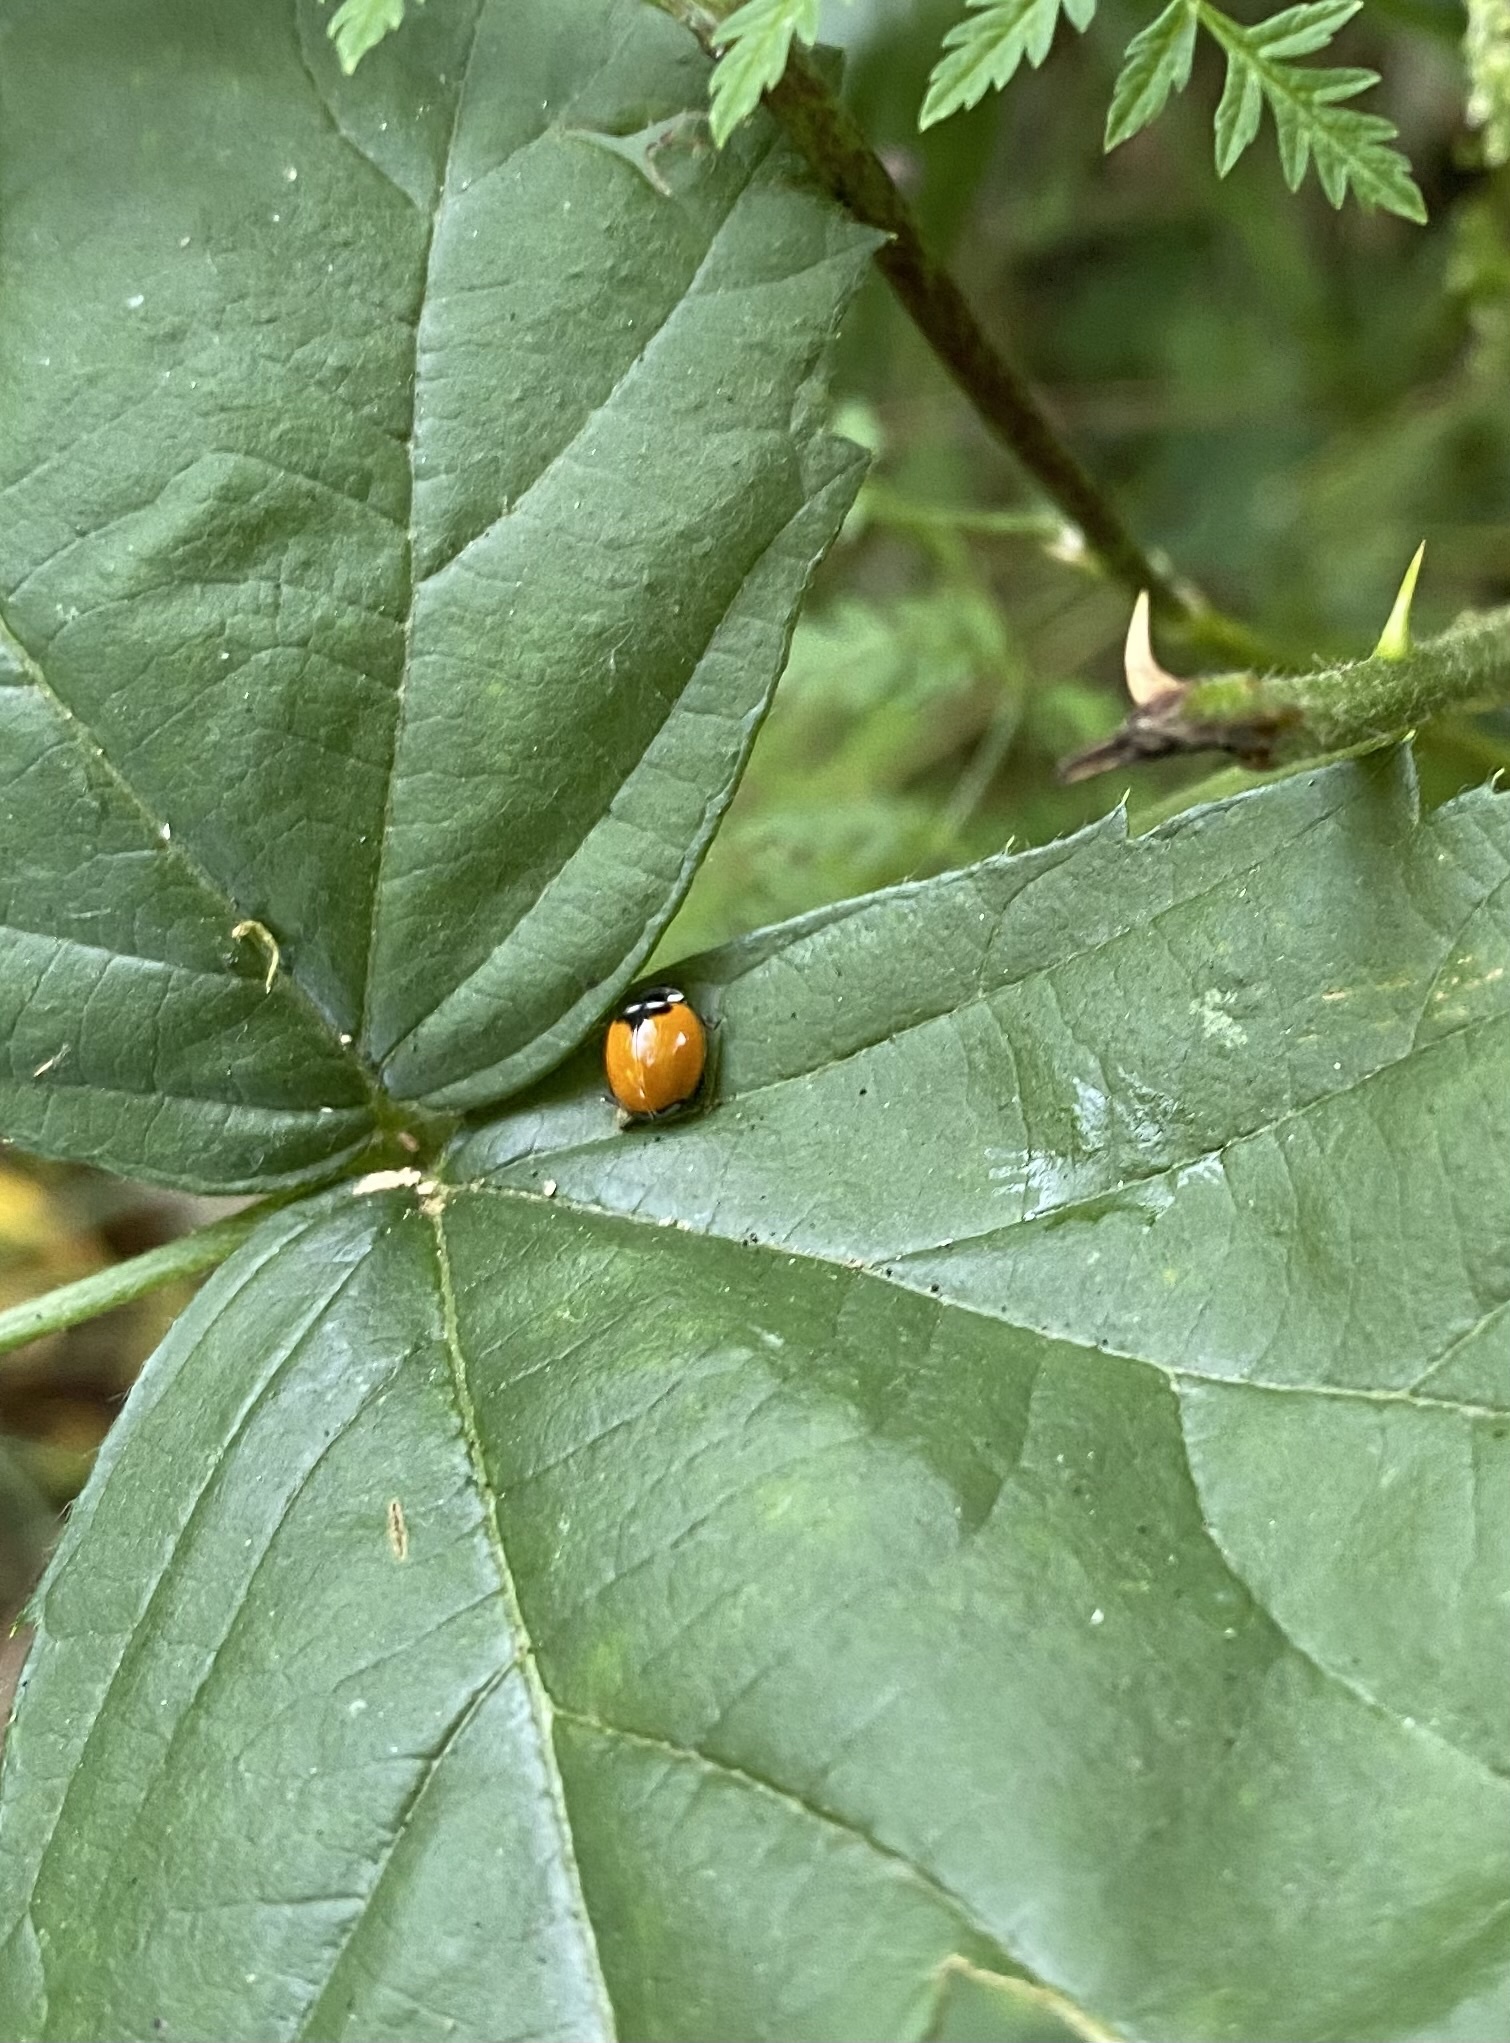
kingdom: Animalia
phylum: Arthropoda
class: Insecta
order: Coleoptera
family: Coccinellidae
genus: Adalia
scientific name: Adalia deficiens
